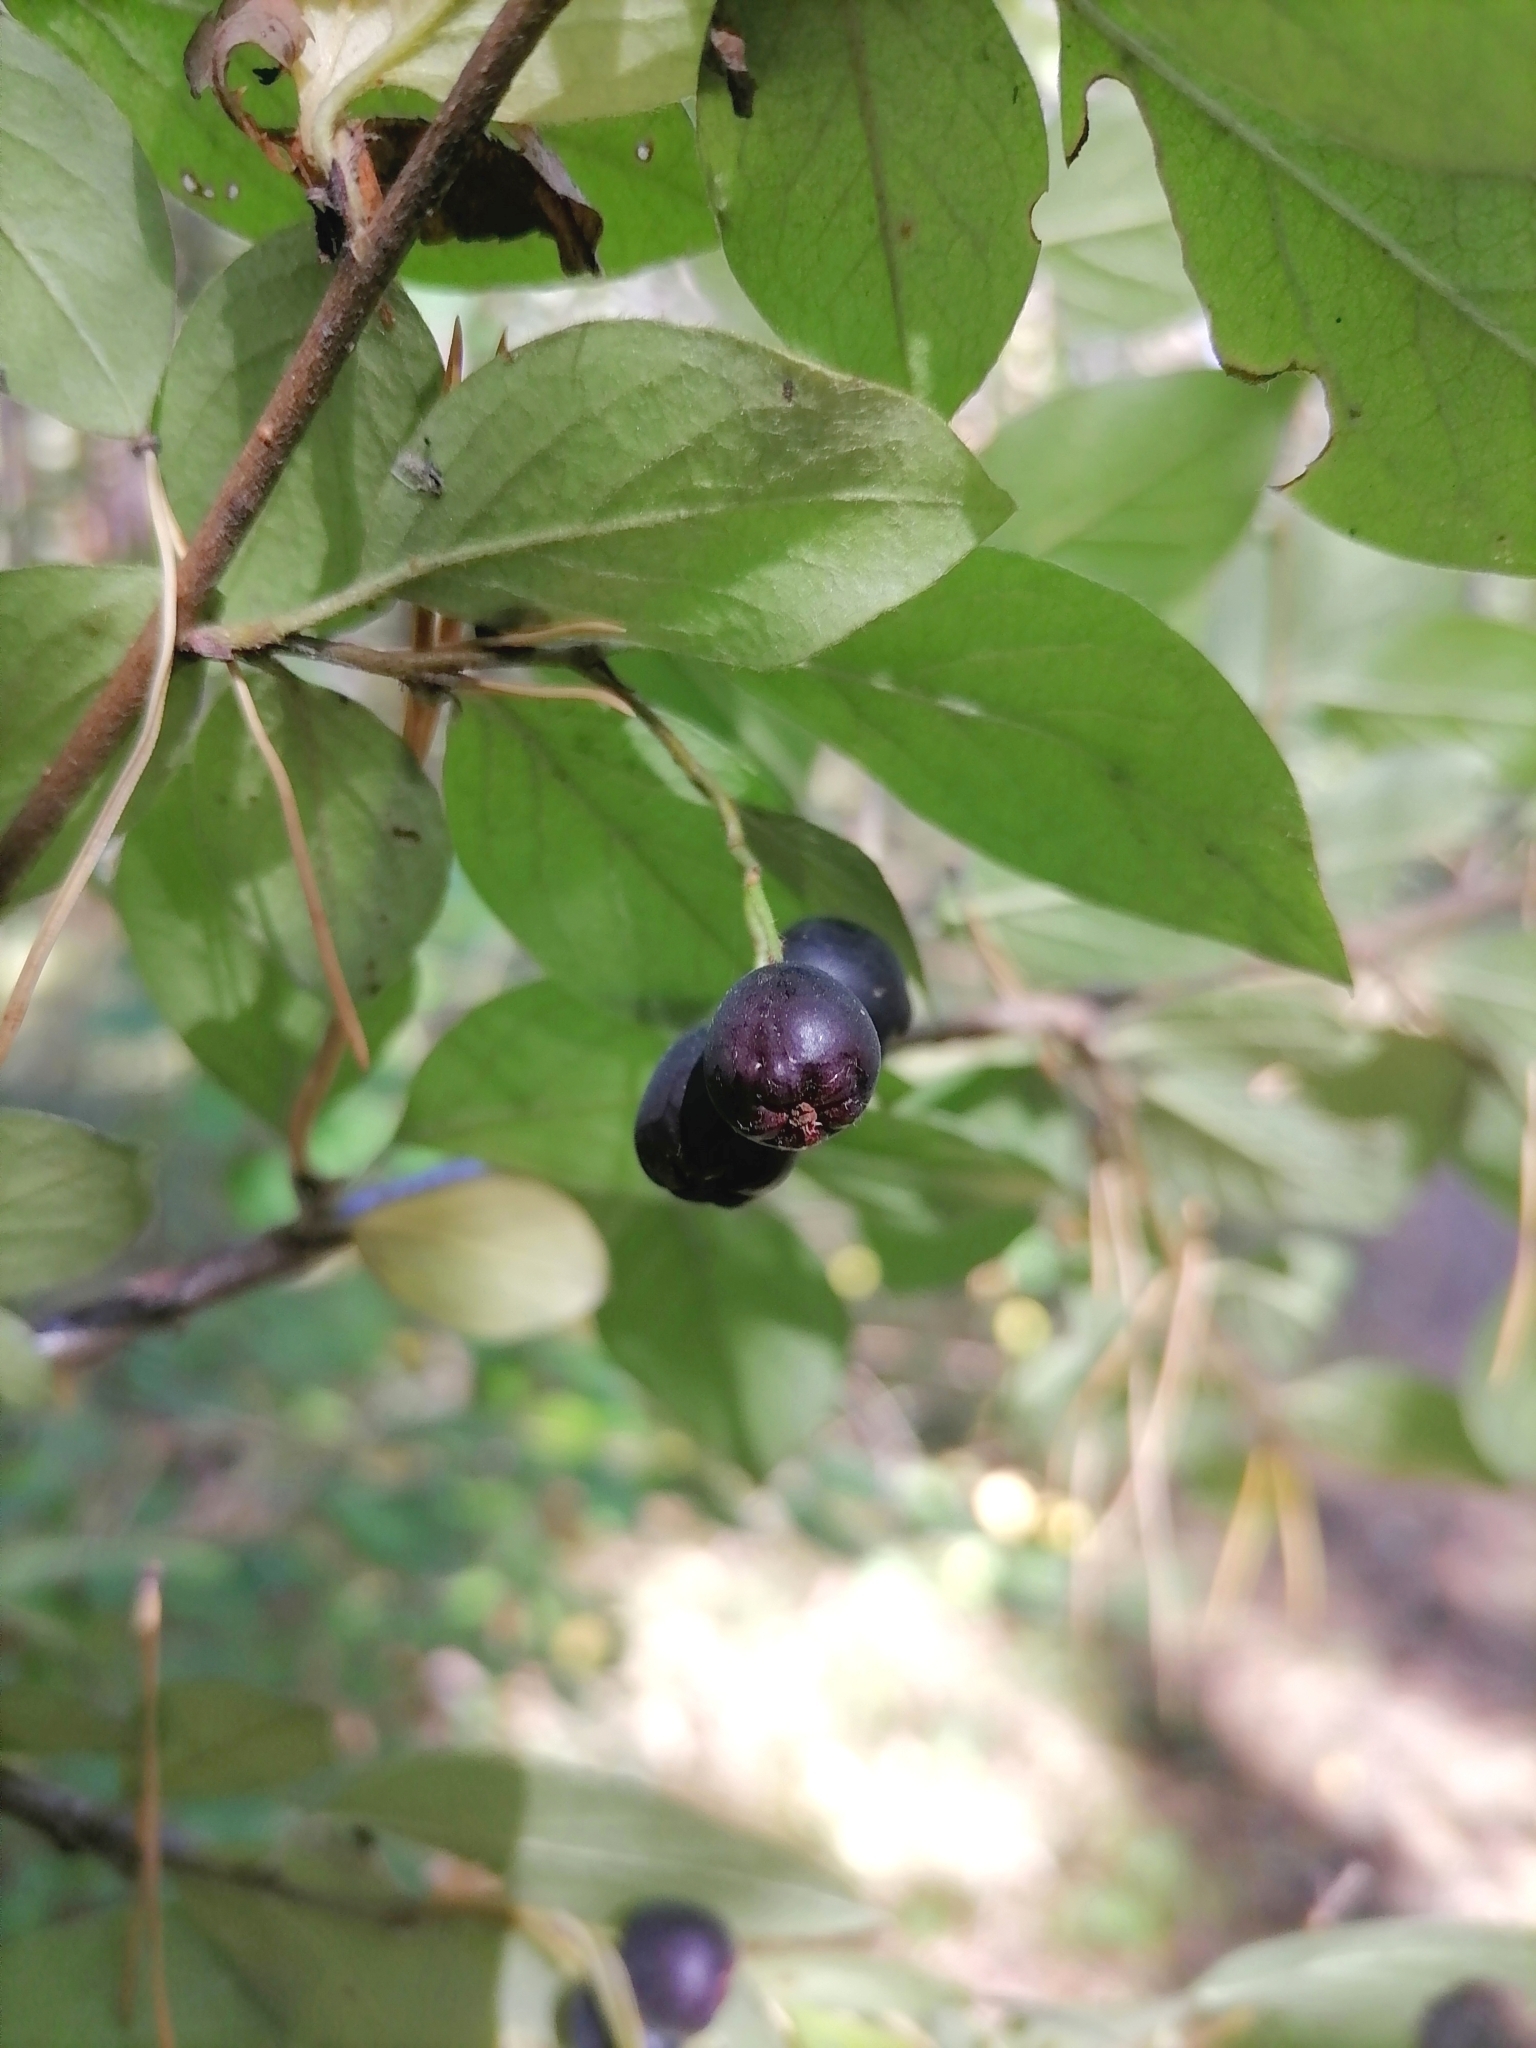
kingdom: Plantae
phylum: Tracheophyta
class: Magnoliopsida
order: Rosales
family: Rosaceae
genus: Cotoneaster
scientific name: Cotoneaster acutifolius
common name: Peking cotoneaster
